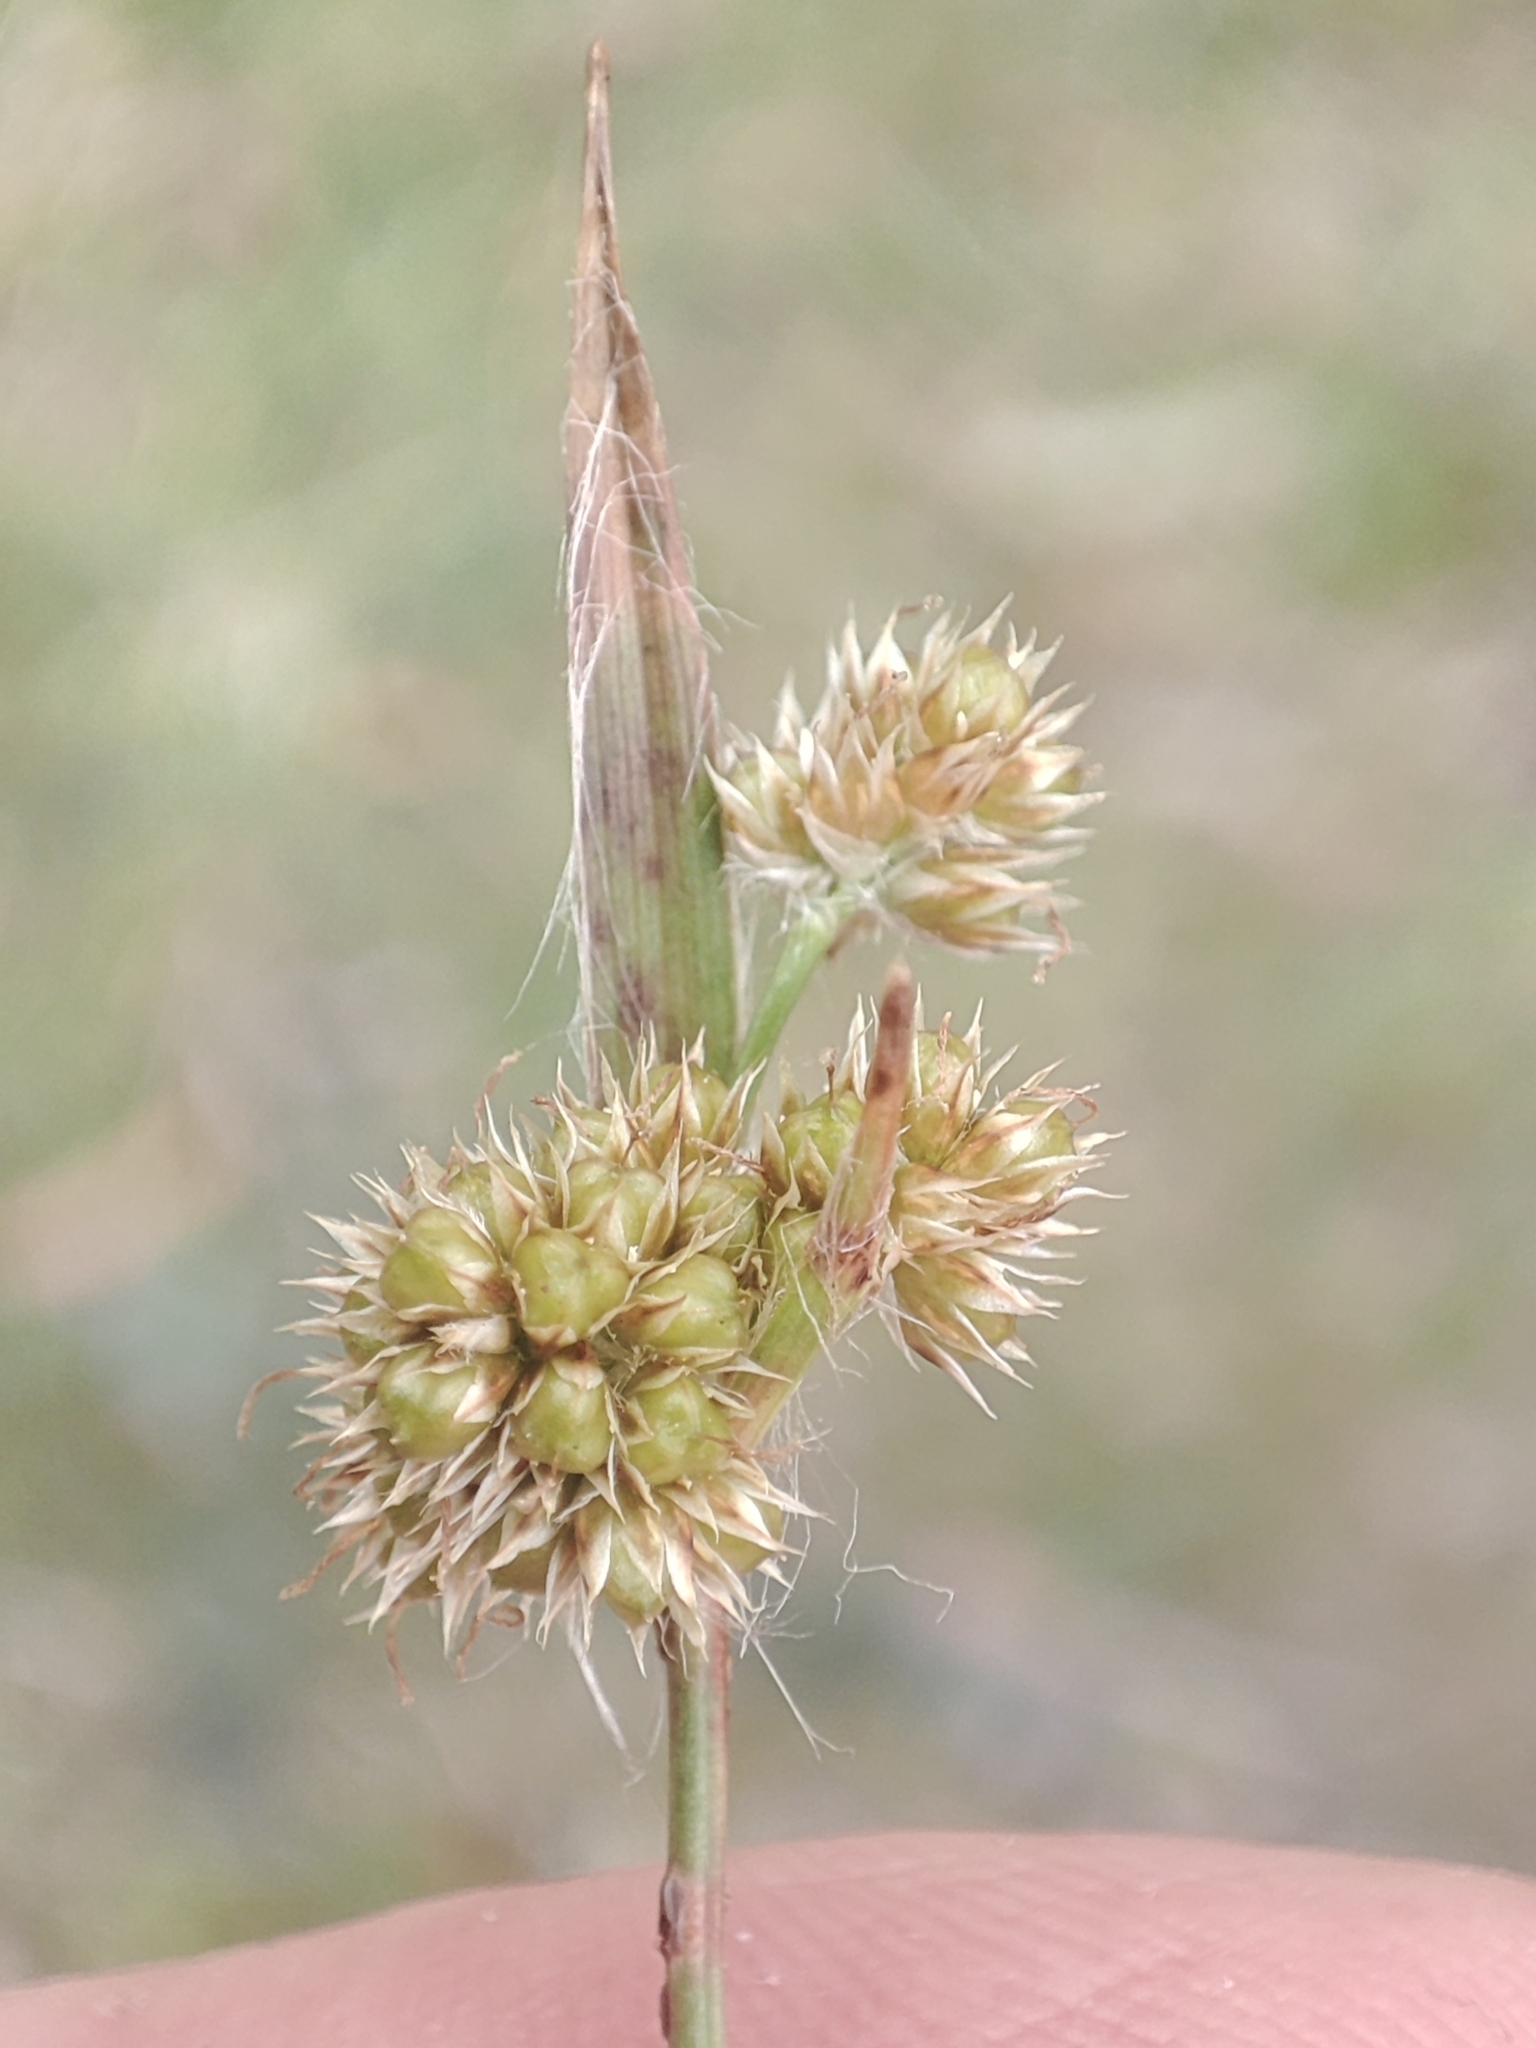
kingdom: Plantae
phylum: Tracheophyta
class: Liliopsida
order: Poales
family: Juncaceae
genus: Luzula
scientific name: Luzula meridionalis
